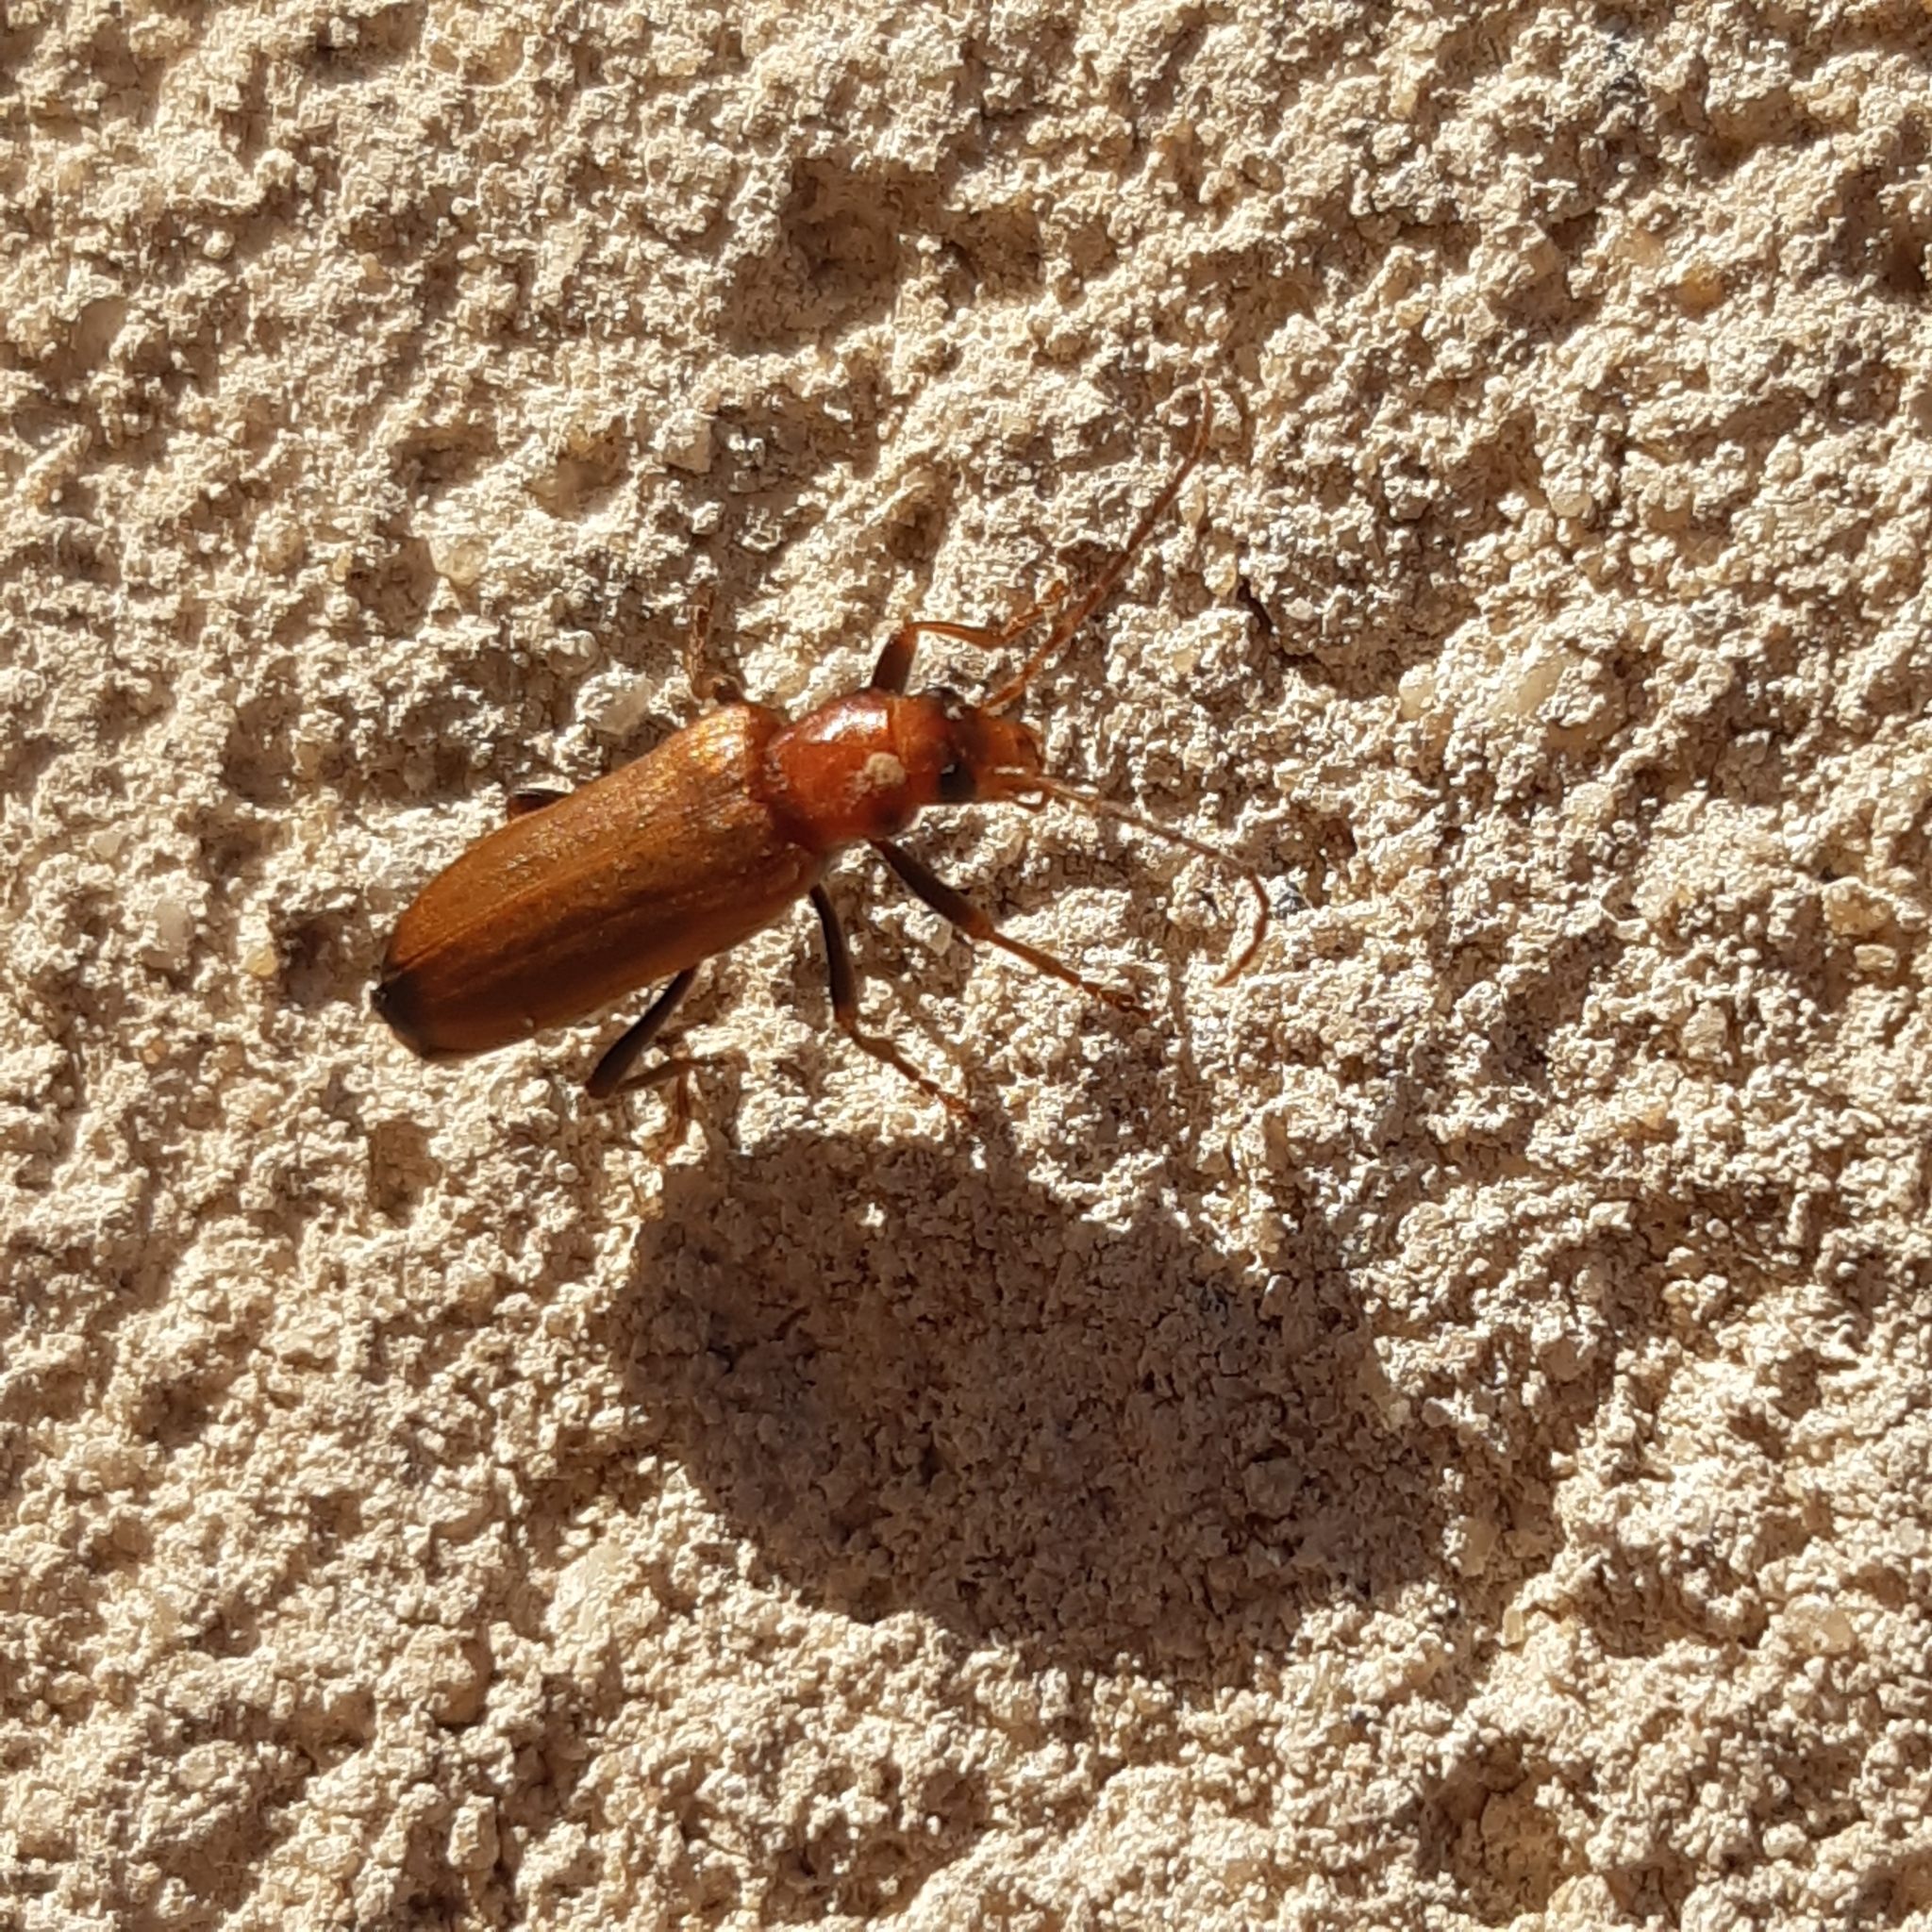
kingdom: Animalia
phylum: Arthropoda
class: Insecta
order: Coleoptera
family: Oedemeridae
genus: Nacerdes
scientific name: Nacerdes melanura
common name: Wharf borer
